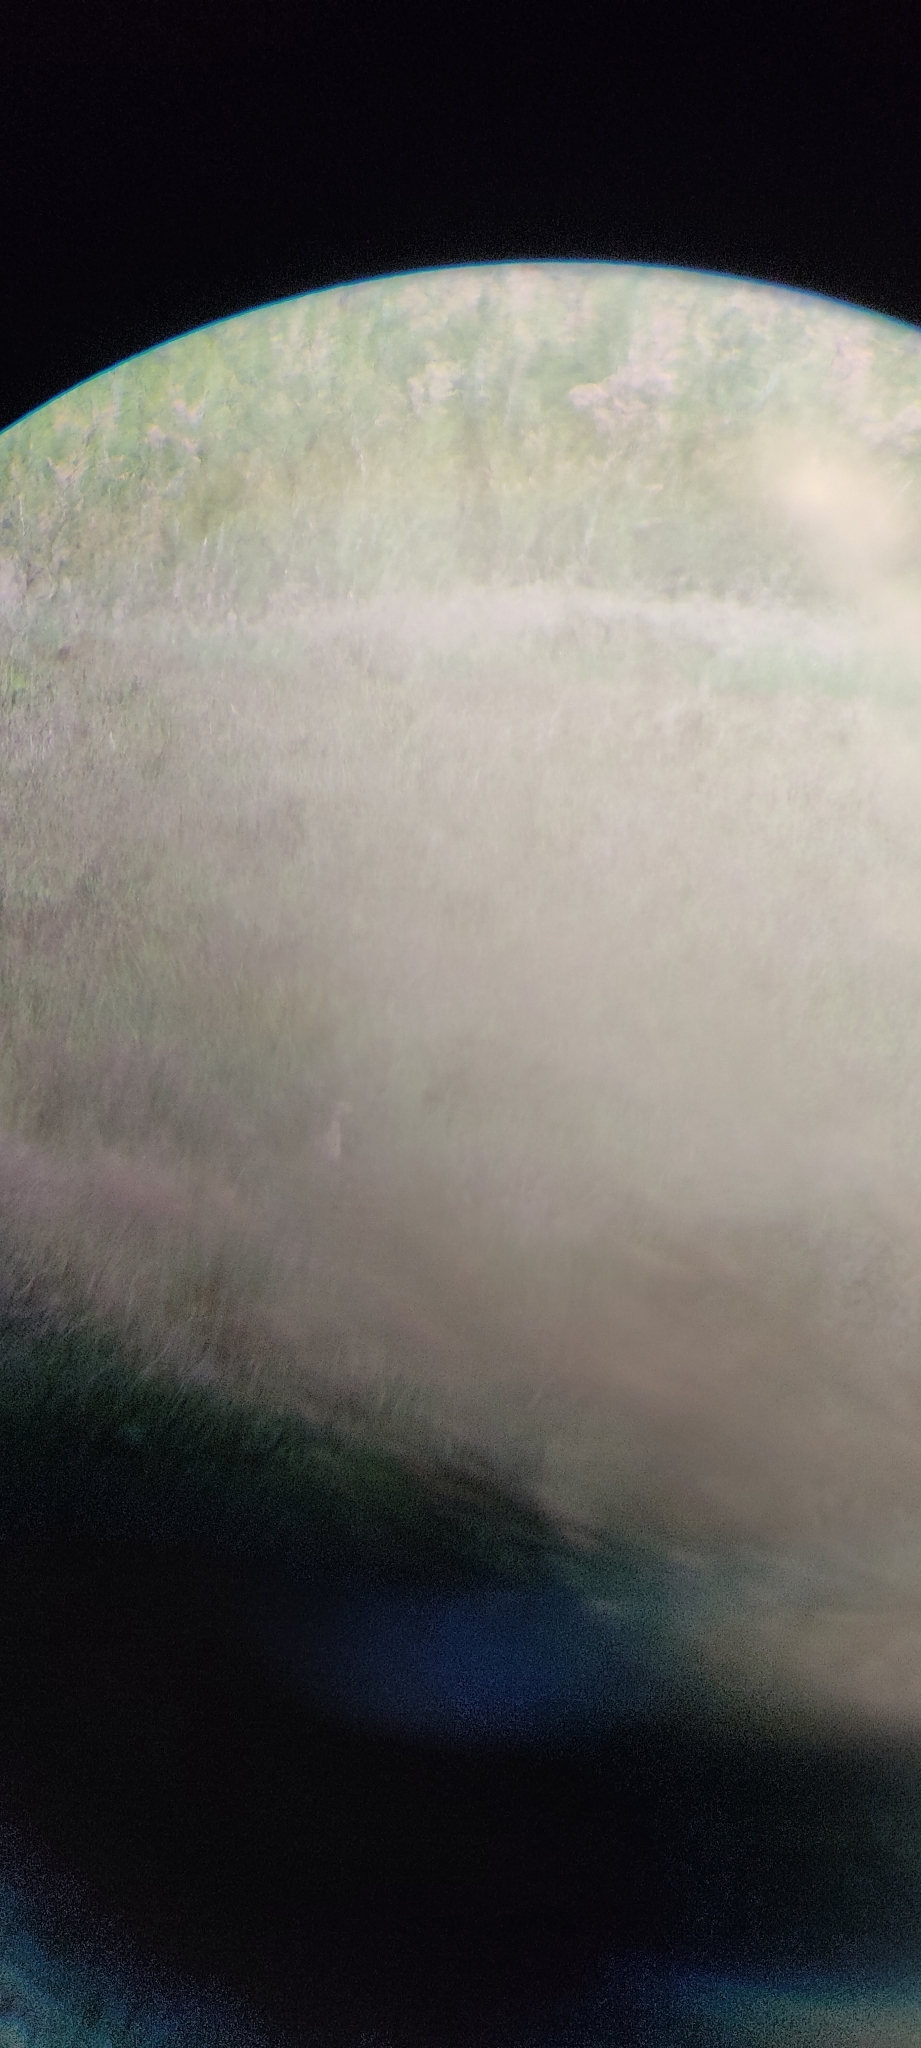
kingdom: Animalia
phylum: Chordata
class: Aves
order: Charadriiformes
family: Burhinidae
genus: Burhinus
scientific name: Burhinus oedicnemus
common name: Eurasian stone-curlew
